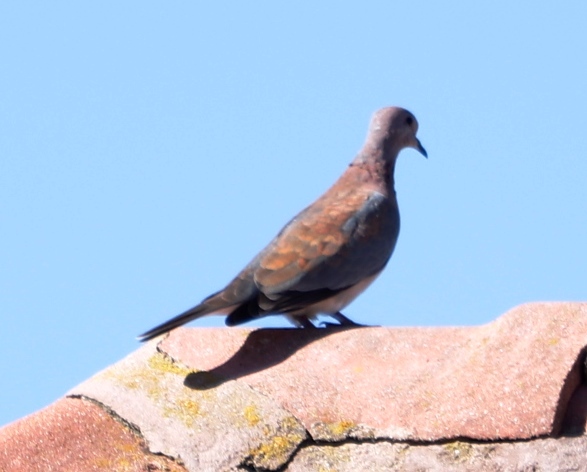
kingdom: Animalia
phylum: Chordata
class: Aves
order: Columbiformes
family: Columbidae
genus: Spilopelia
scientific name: Spilopelia senegalensis
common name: Laughing dove
